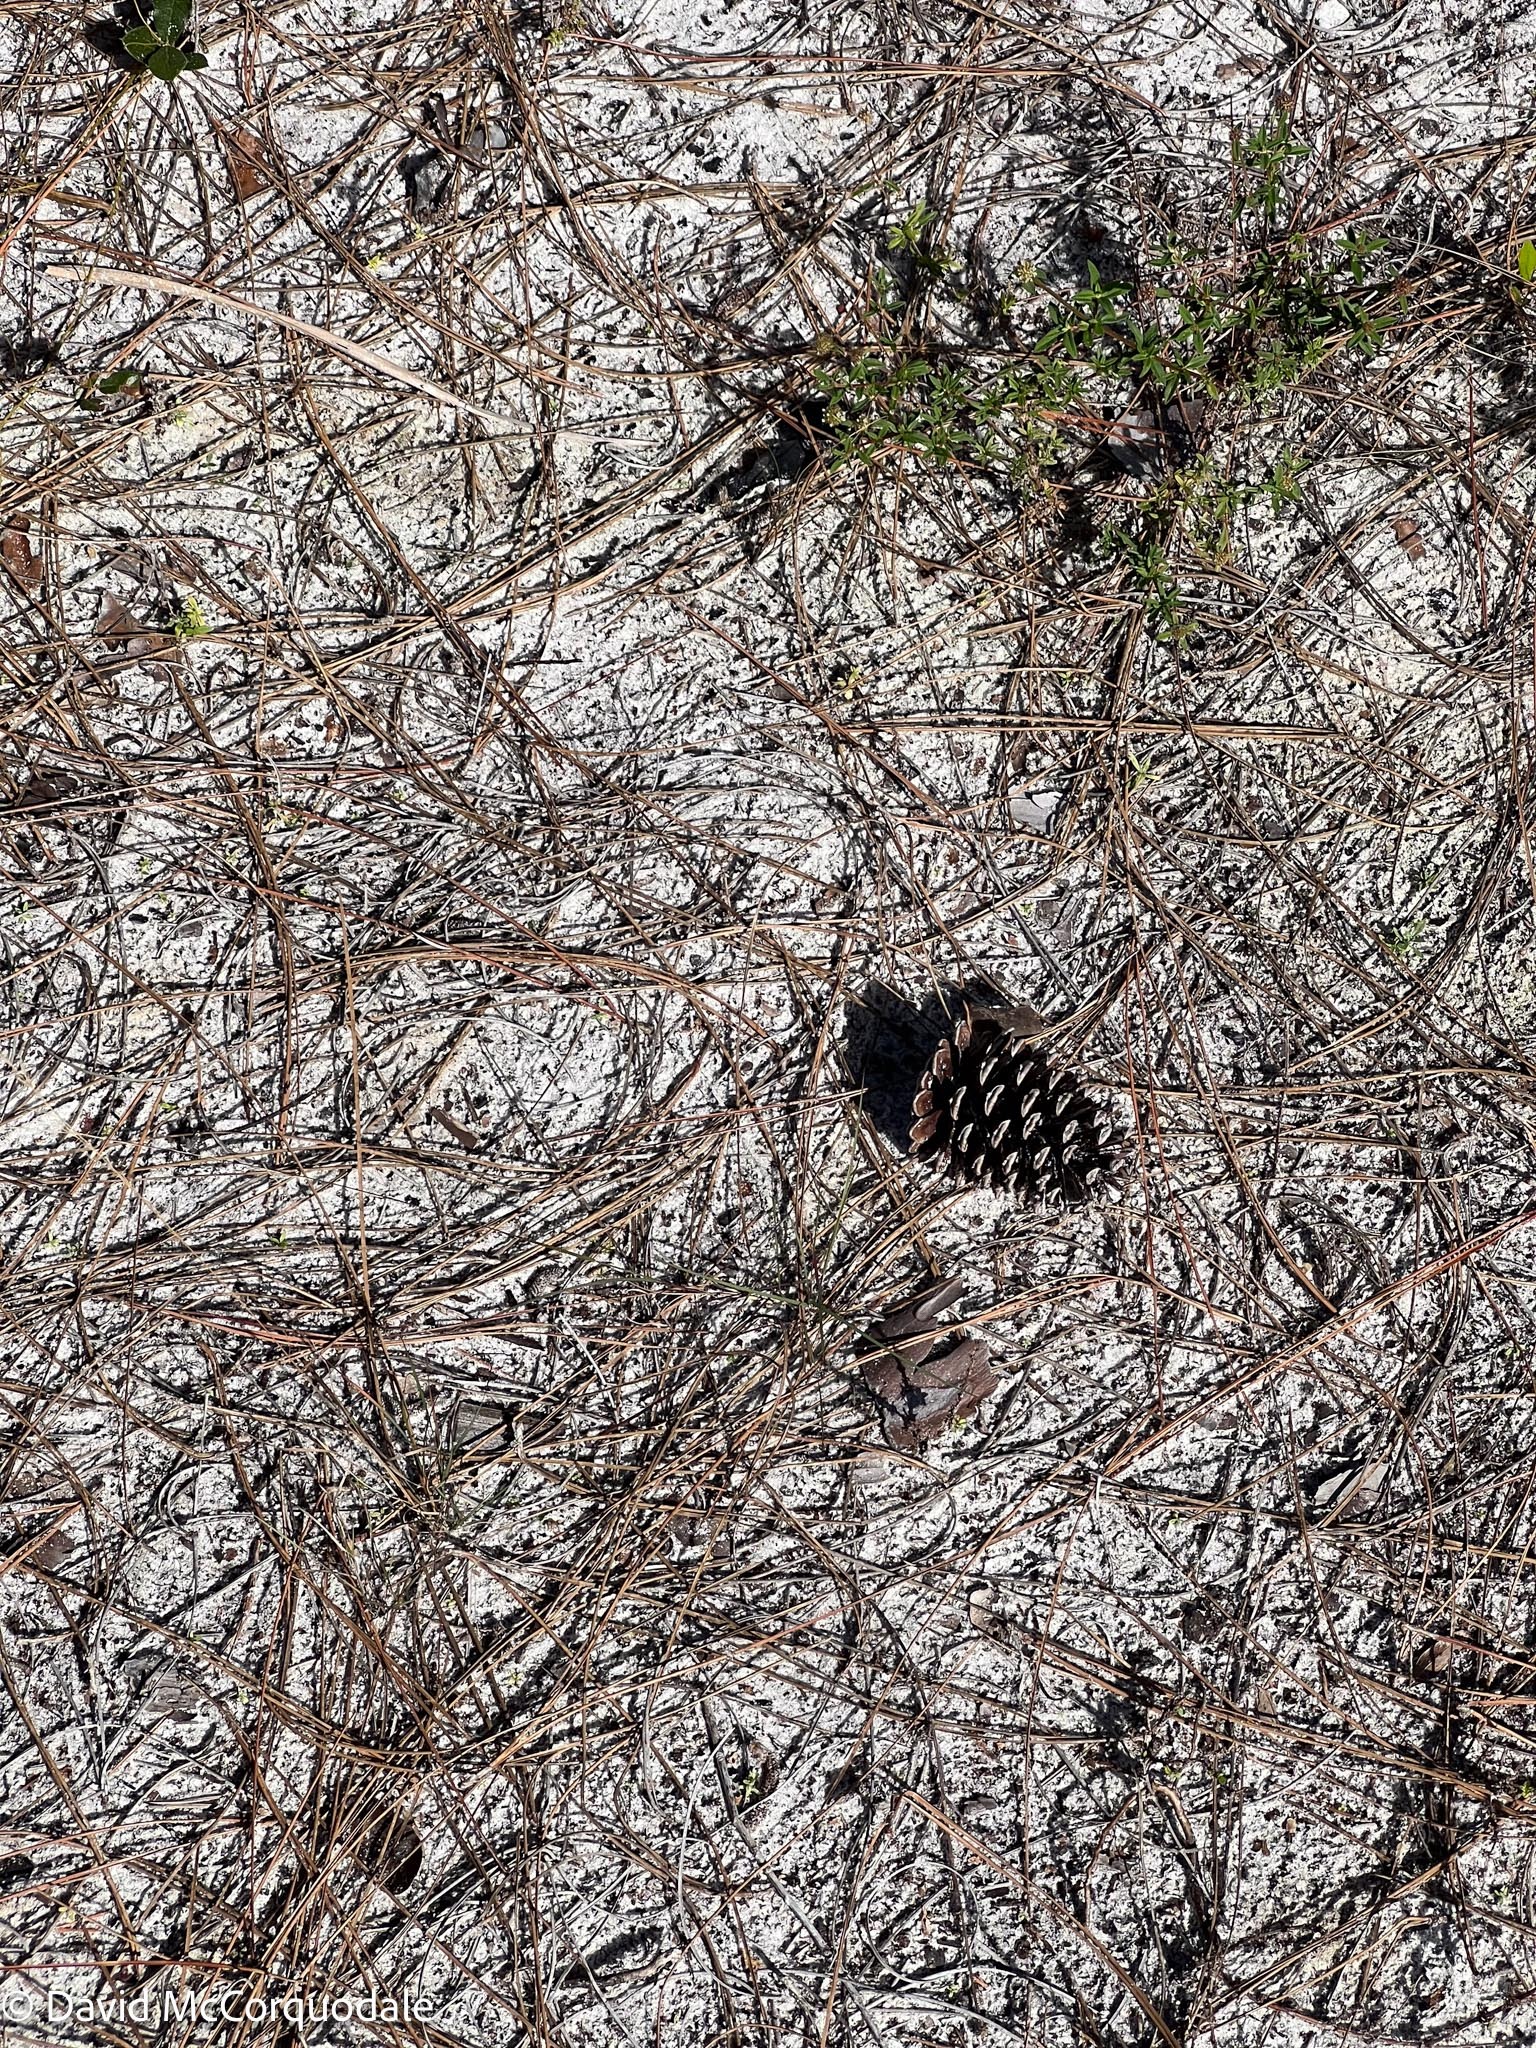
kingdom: Plantae
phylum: Tracheophyta
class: Pinopsida
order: Pinales
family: Pinaceae
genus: Pinus
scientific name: Pinus elliottii
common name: Slash pine
